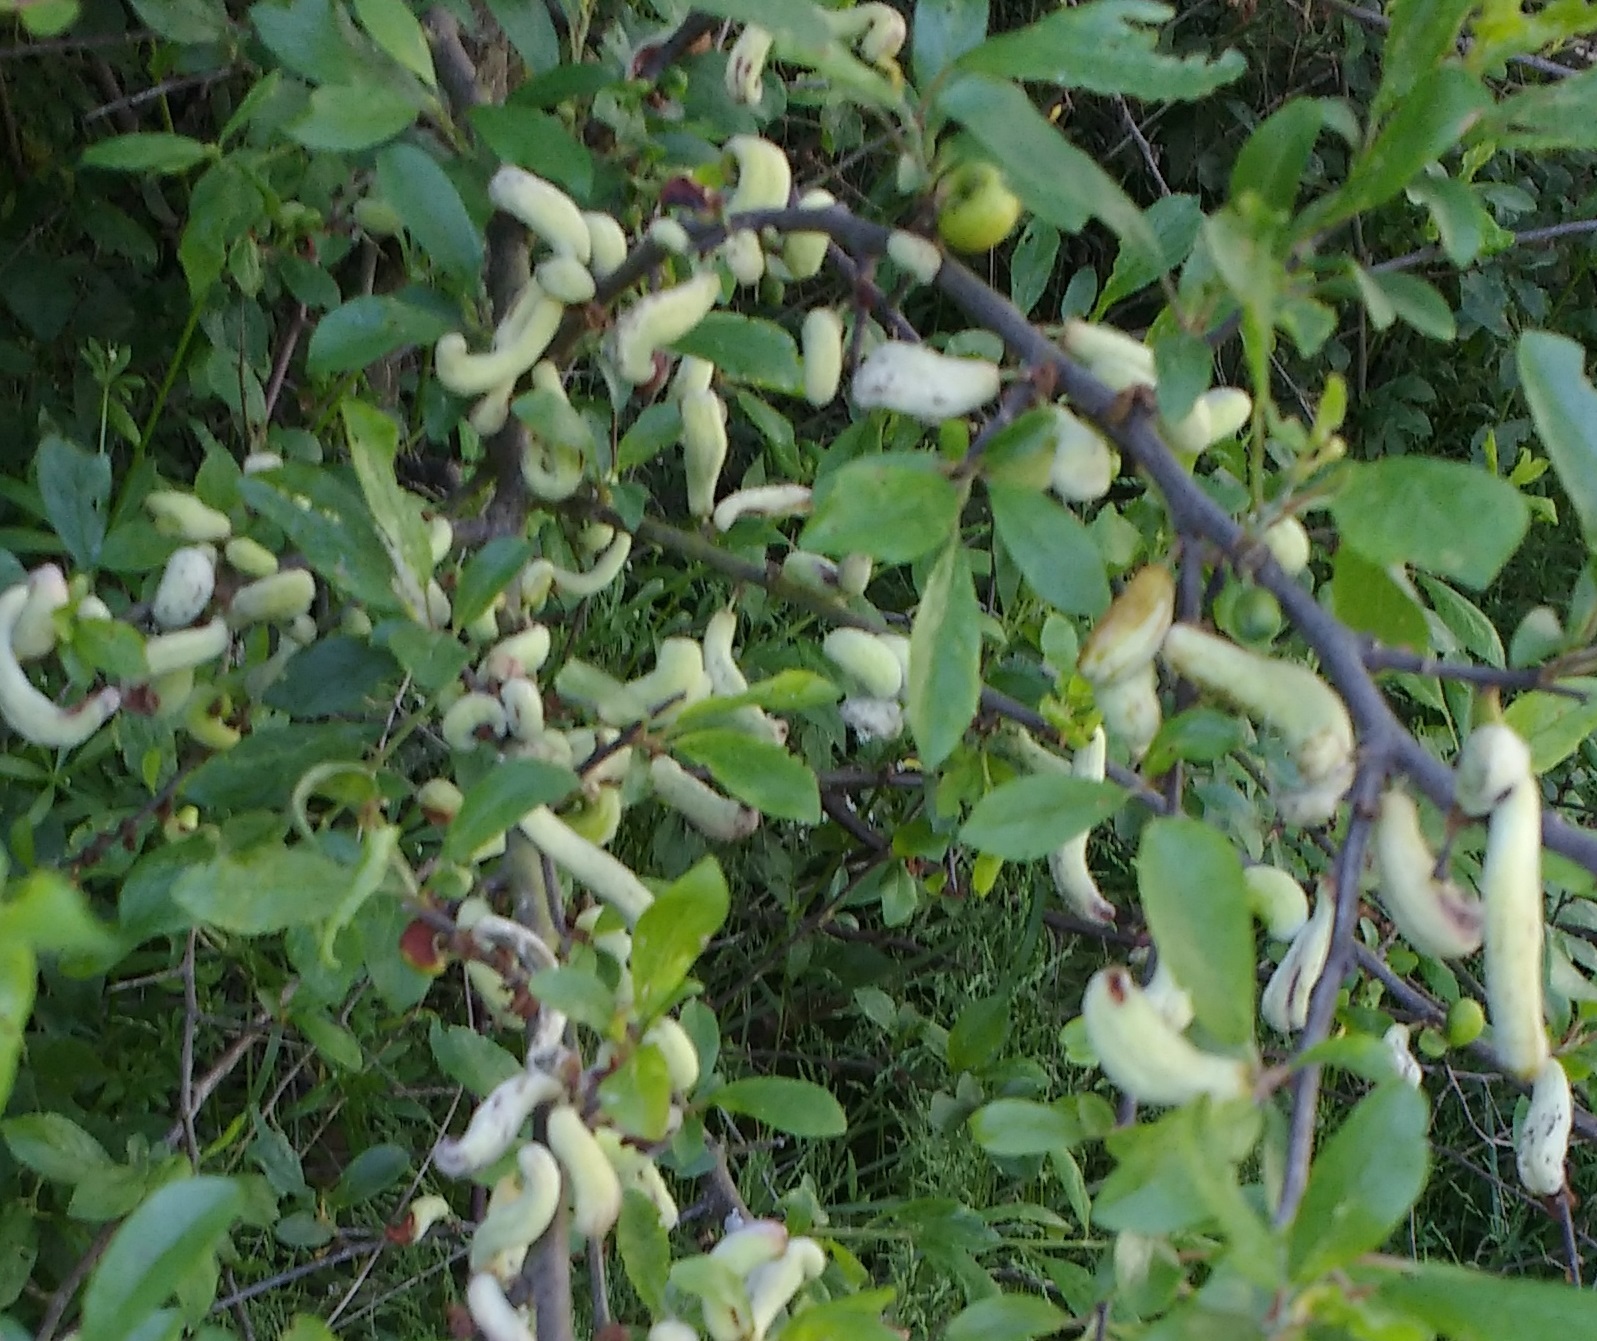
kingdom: Fungi
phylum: Ascomycota
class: Taphrinomycetes
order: Taphrinales
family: Taphrinaceae
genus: Taphrina
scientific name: Taphrina pruni
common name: Pocket plum
